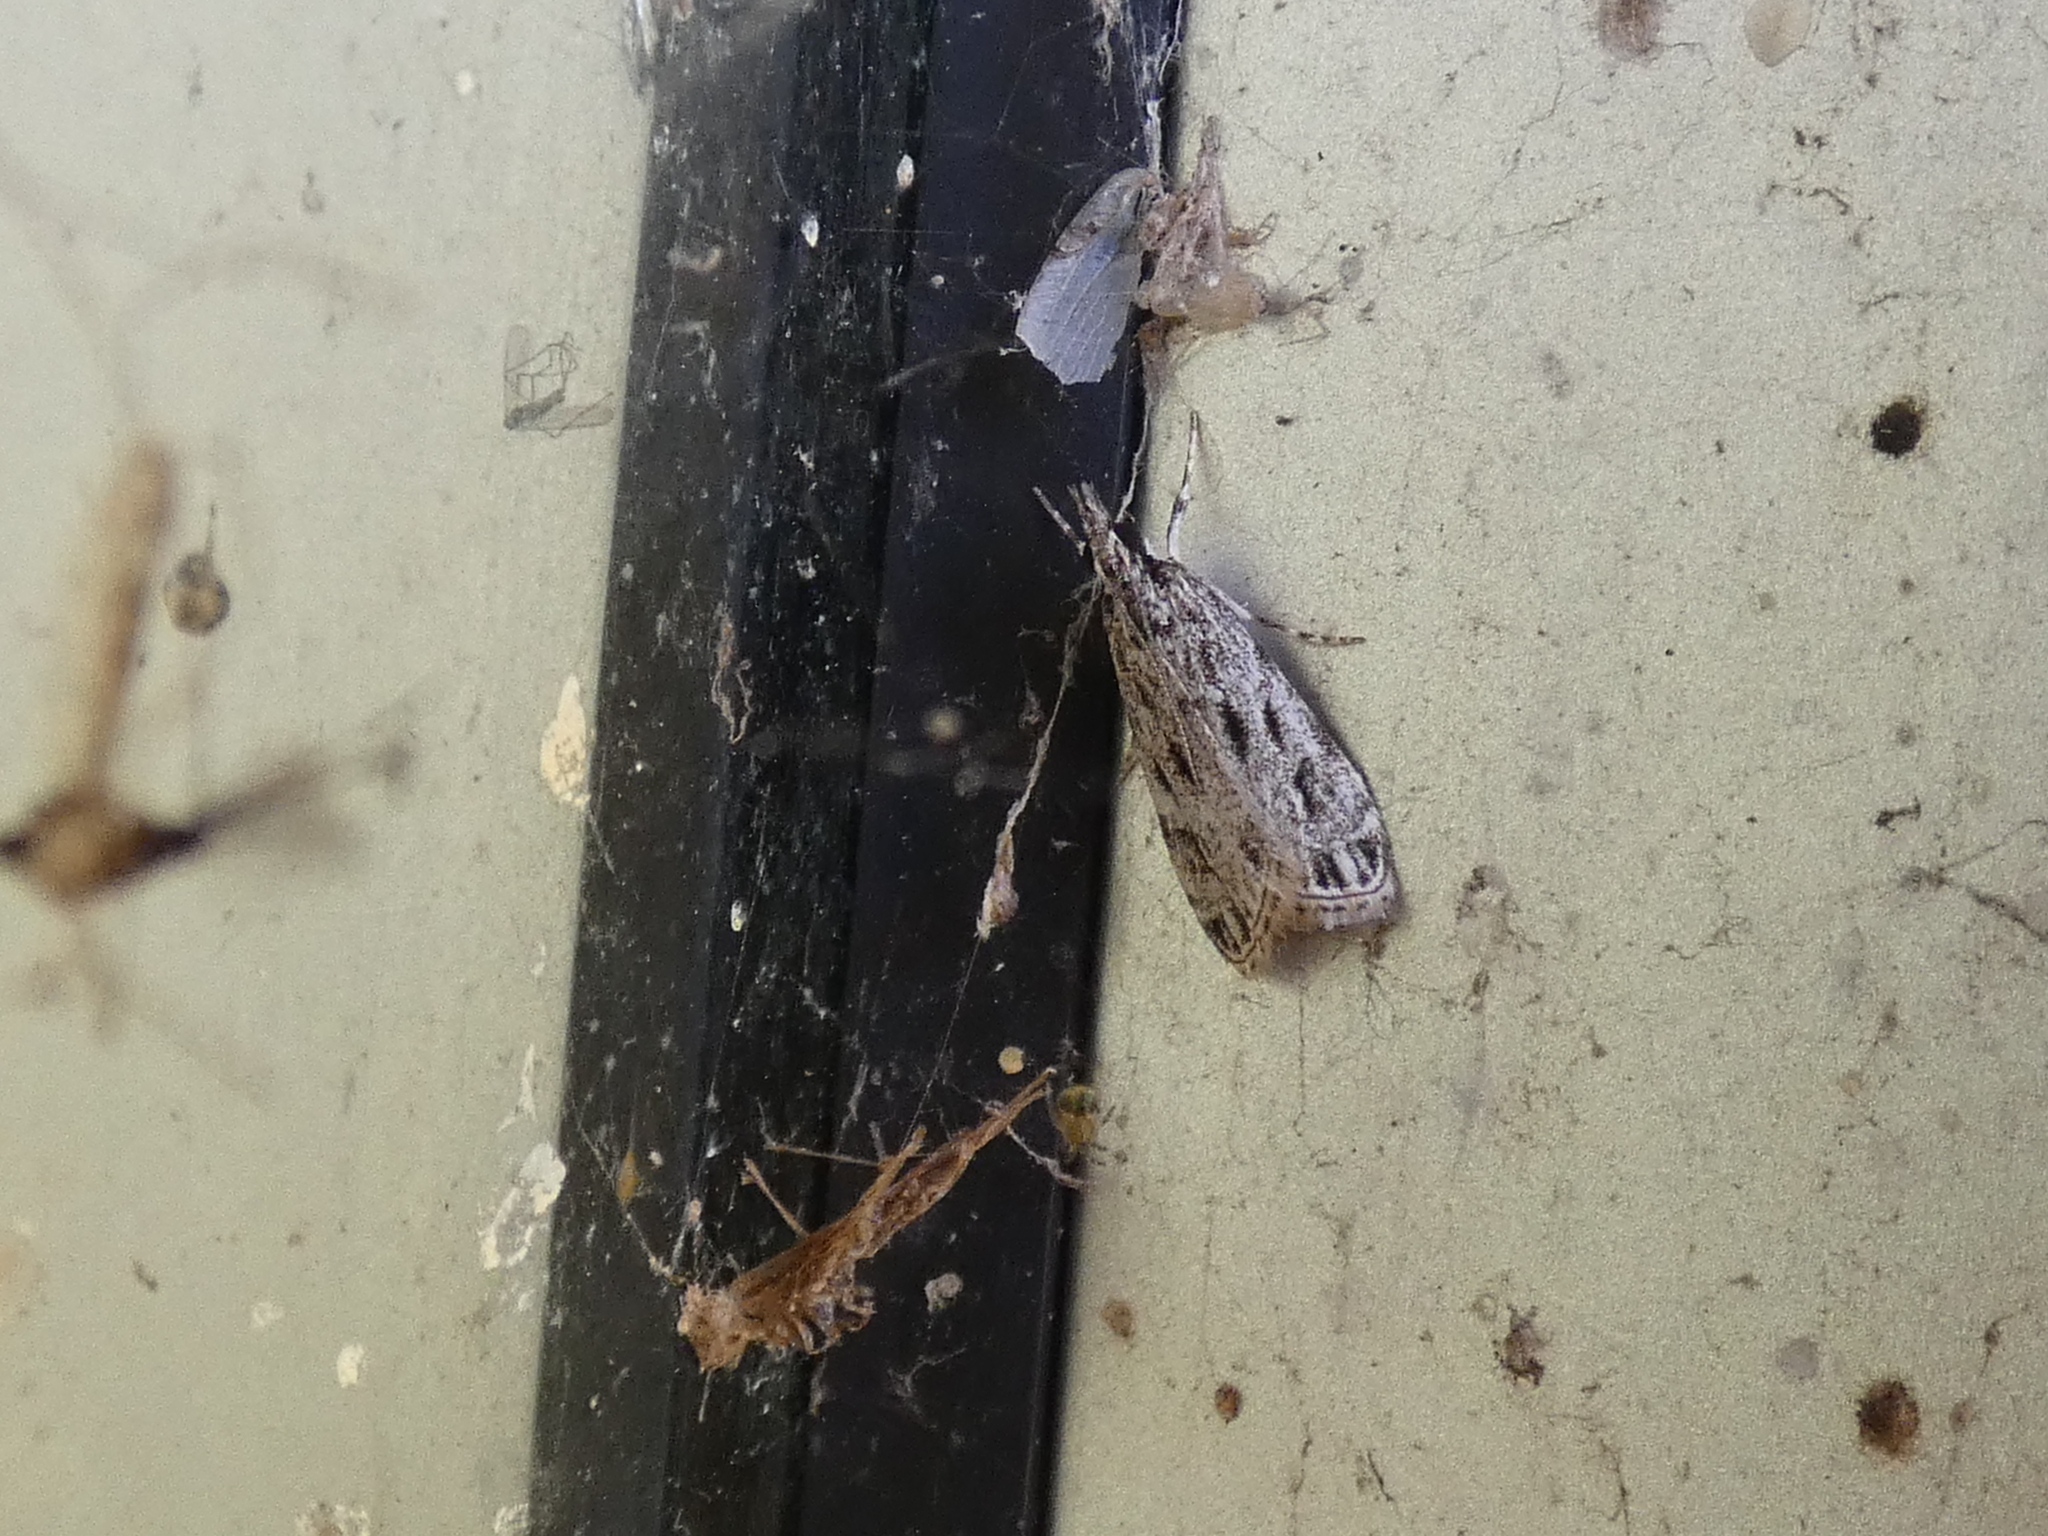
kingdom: Animalia
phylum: Arthropoda
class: Insecta
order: Lepidoptera
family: Crambidae
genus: Eudonia
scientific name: Eudonia strigalis
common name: Striped eudonia moth
